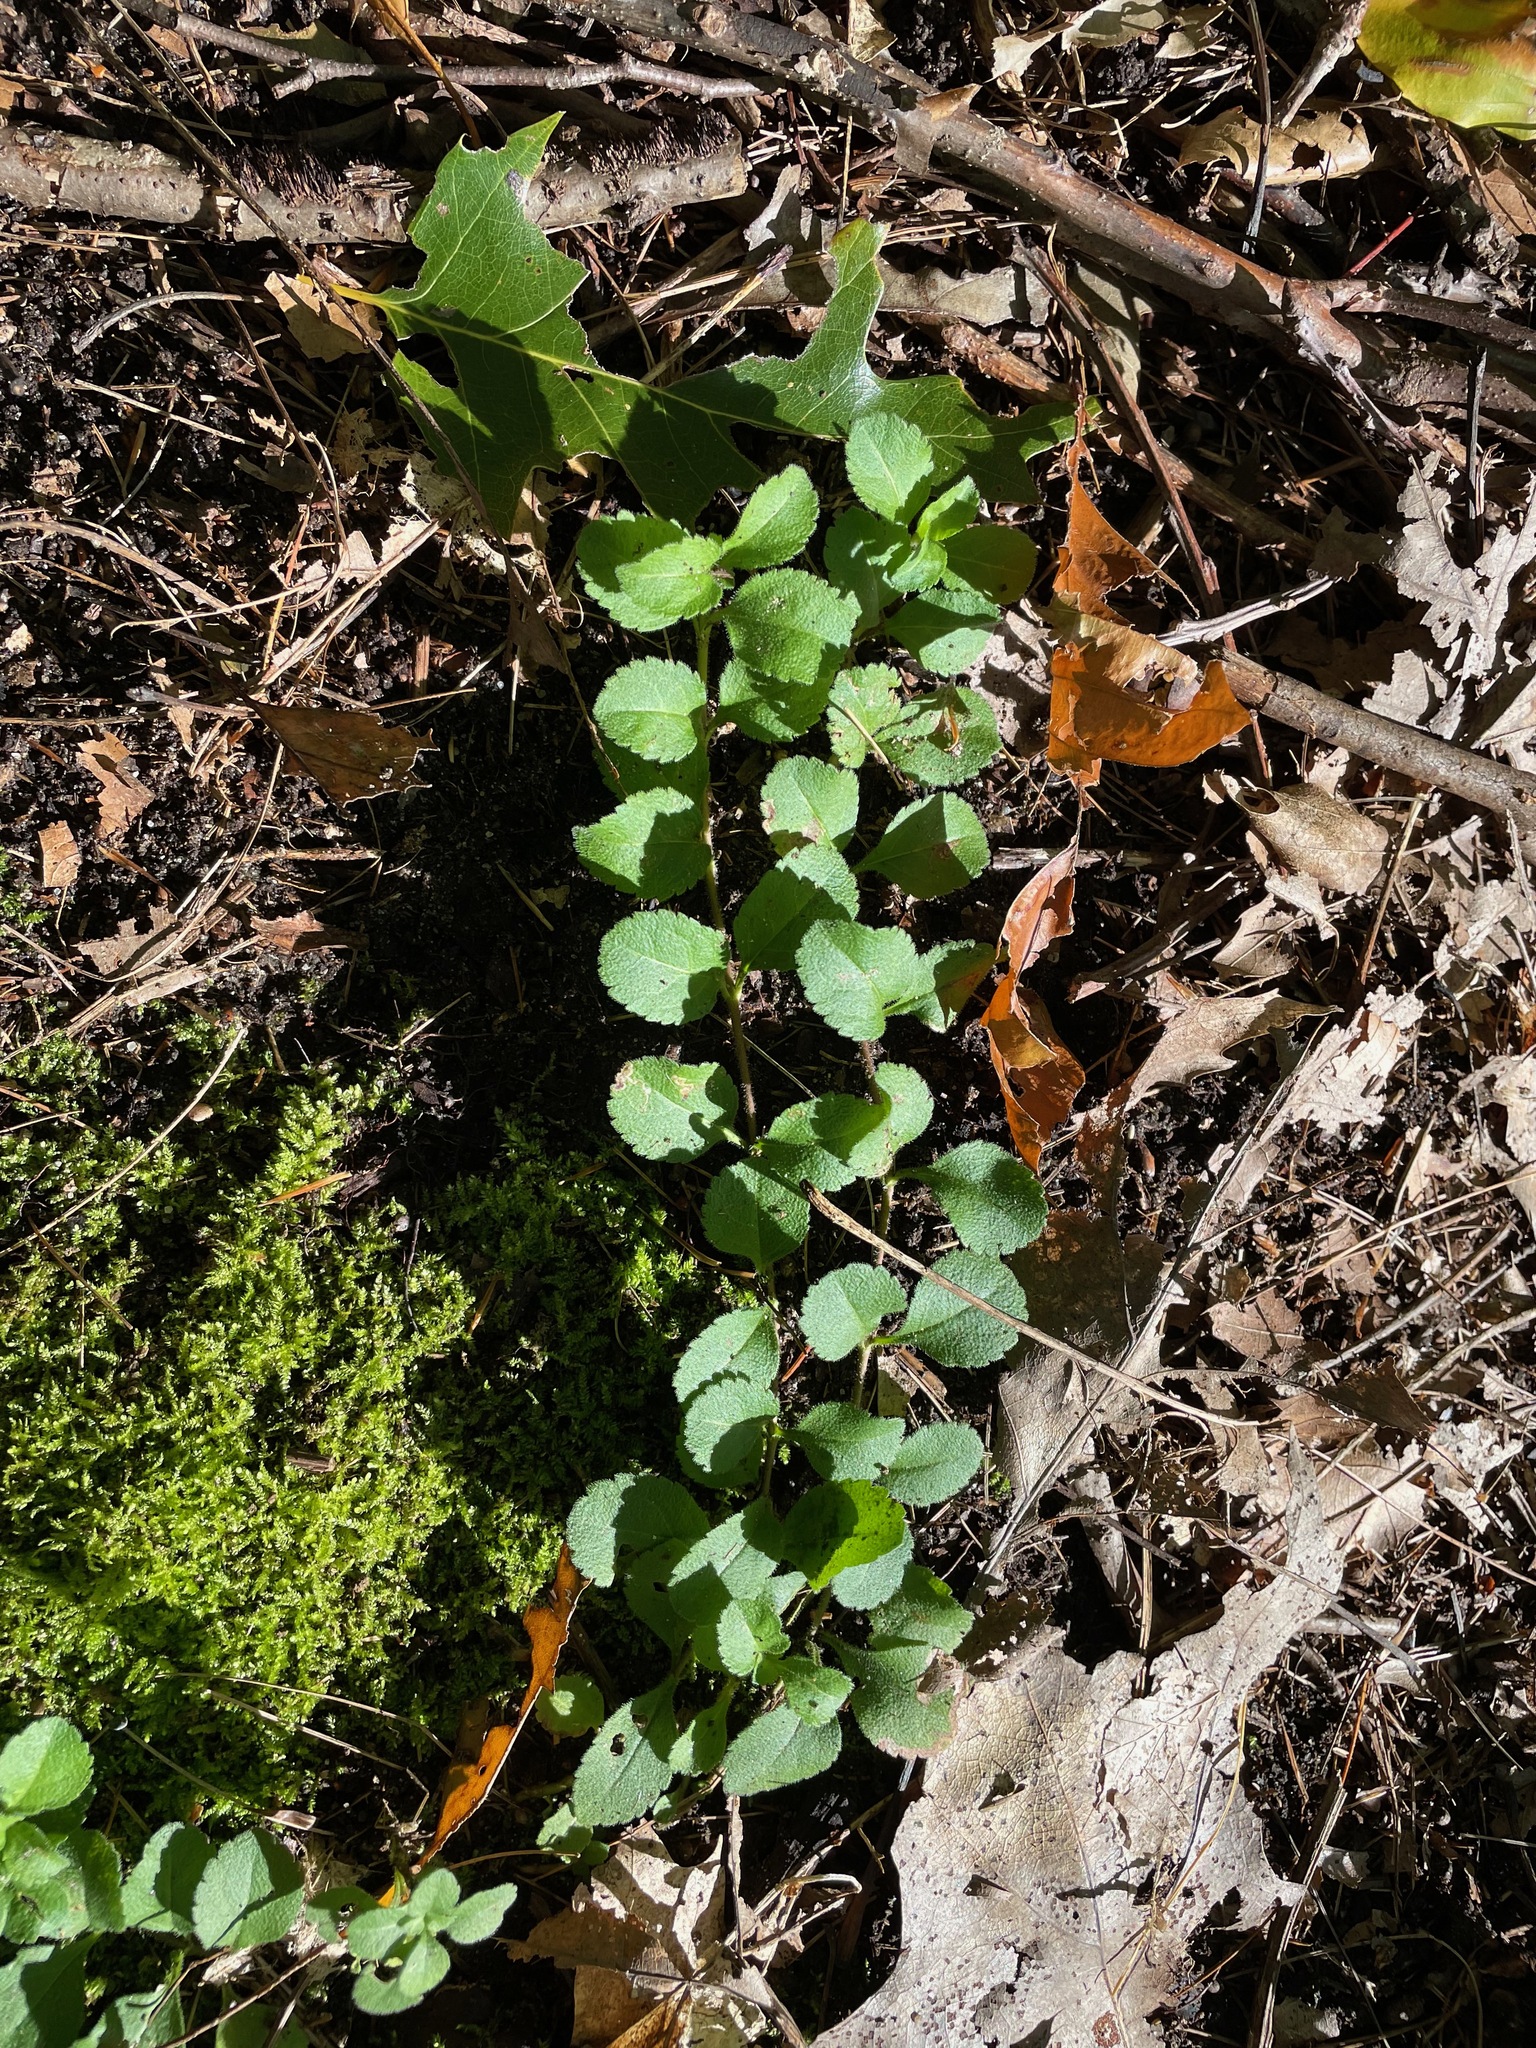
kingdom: Plantae
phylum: Tracheophyta
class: Magnoliopsida
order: Lamiales
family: Plantaginaceae
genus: Veronica
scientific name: Veronica officinalis
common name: Common speedwell
